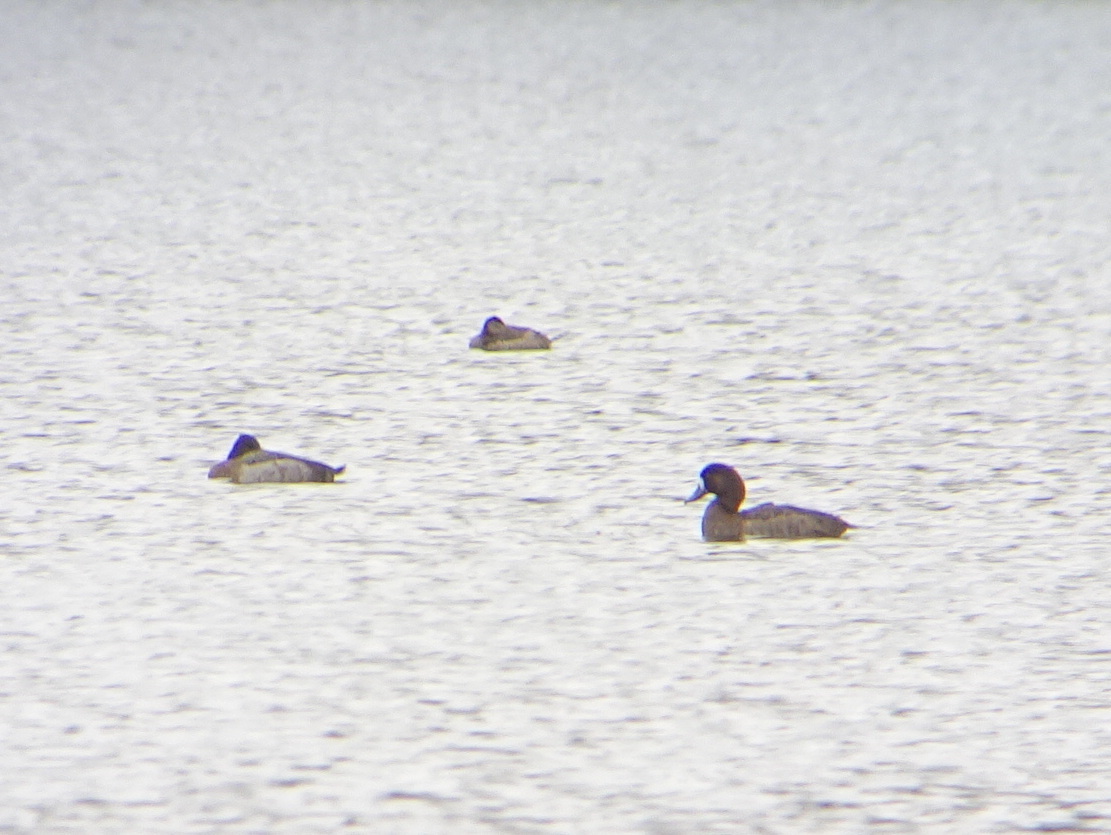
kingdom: Animalia
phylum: Chordata
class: Aves
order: Anseriformes
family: Anatidae
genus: Aythya
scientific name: Aythya marila
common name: Greater scaup
